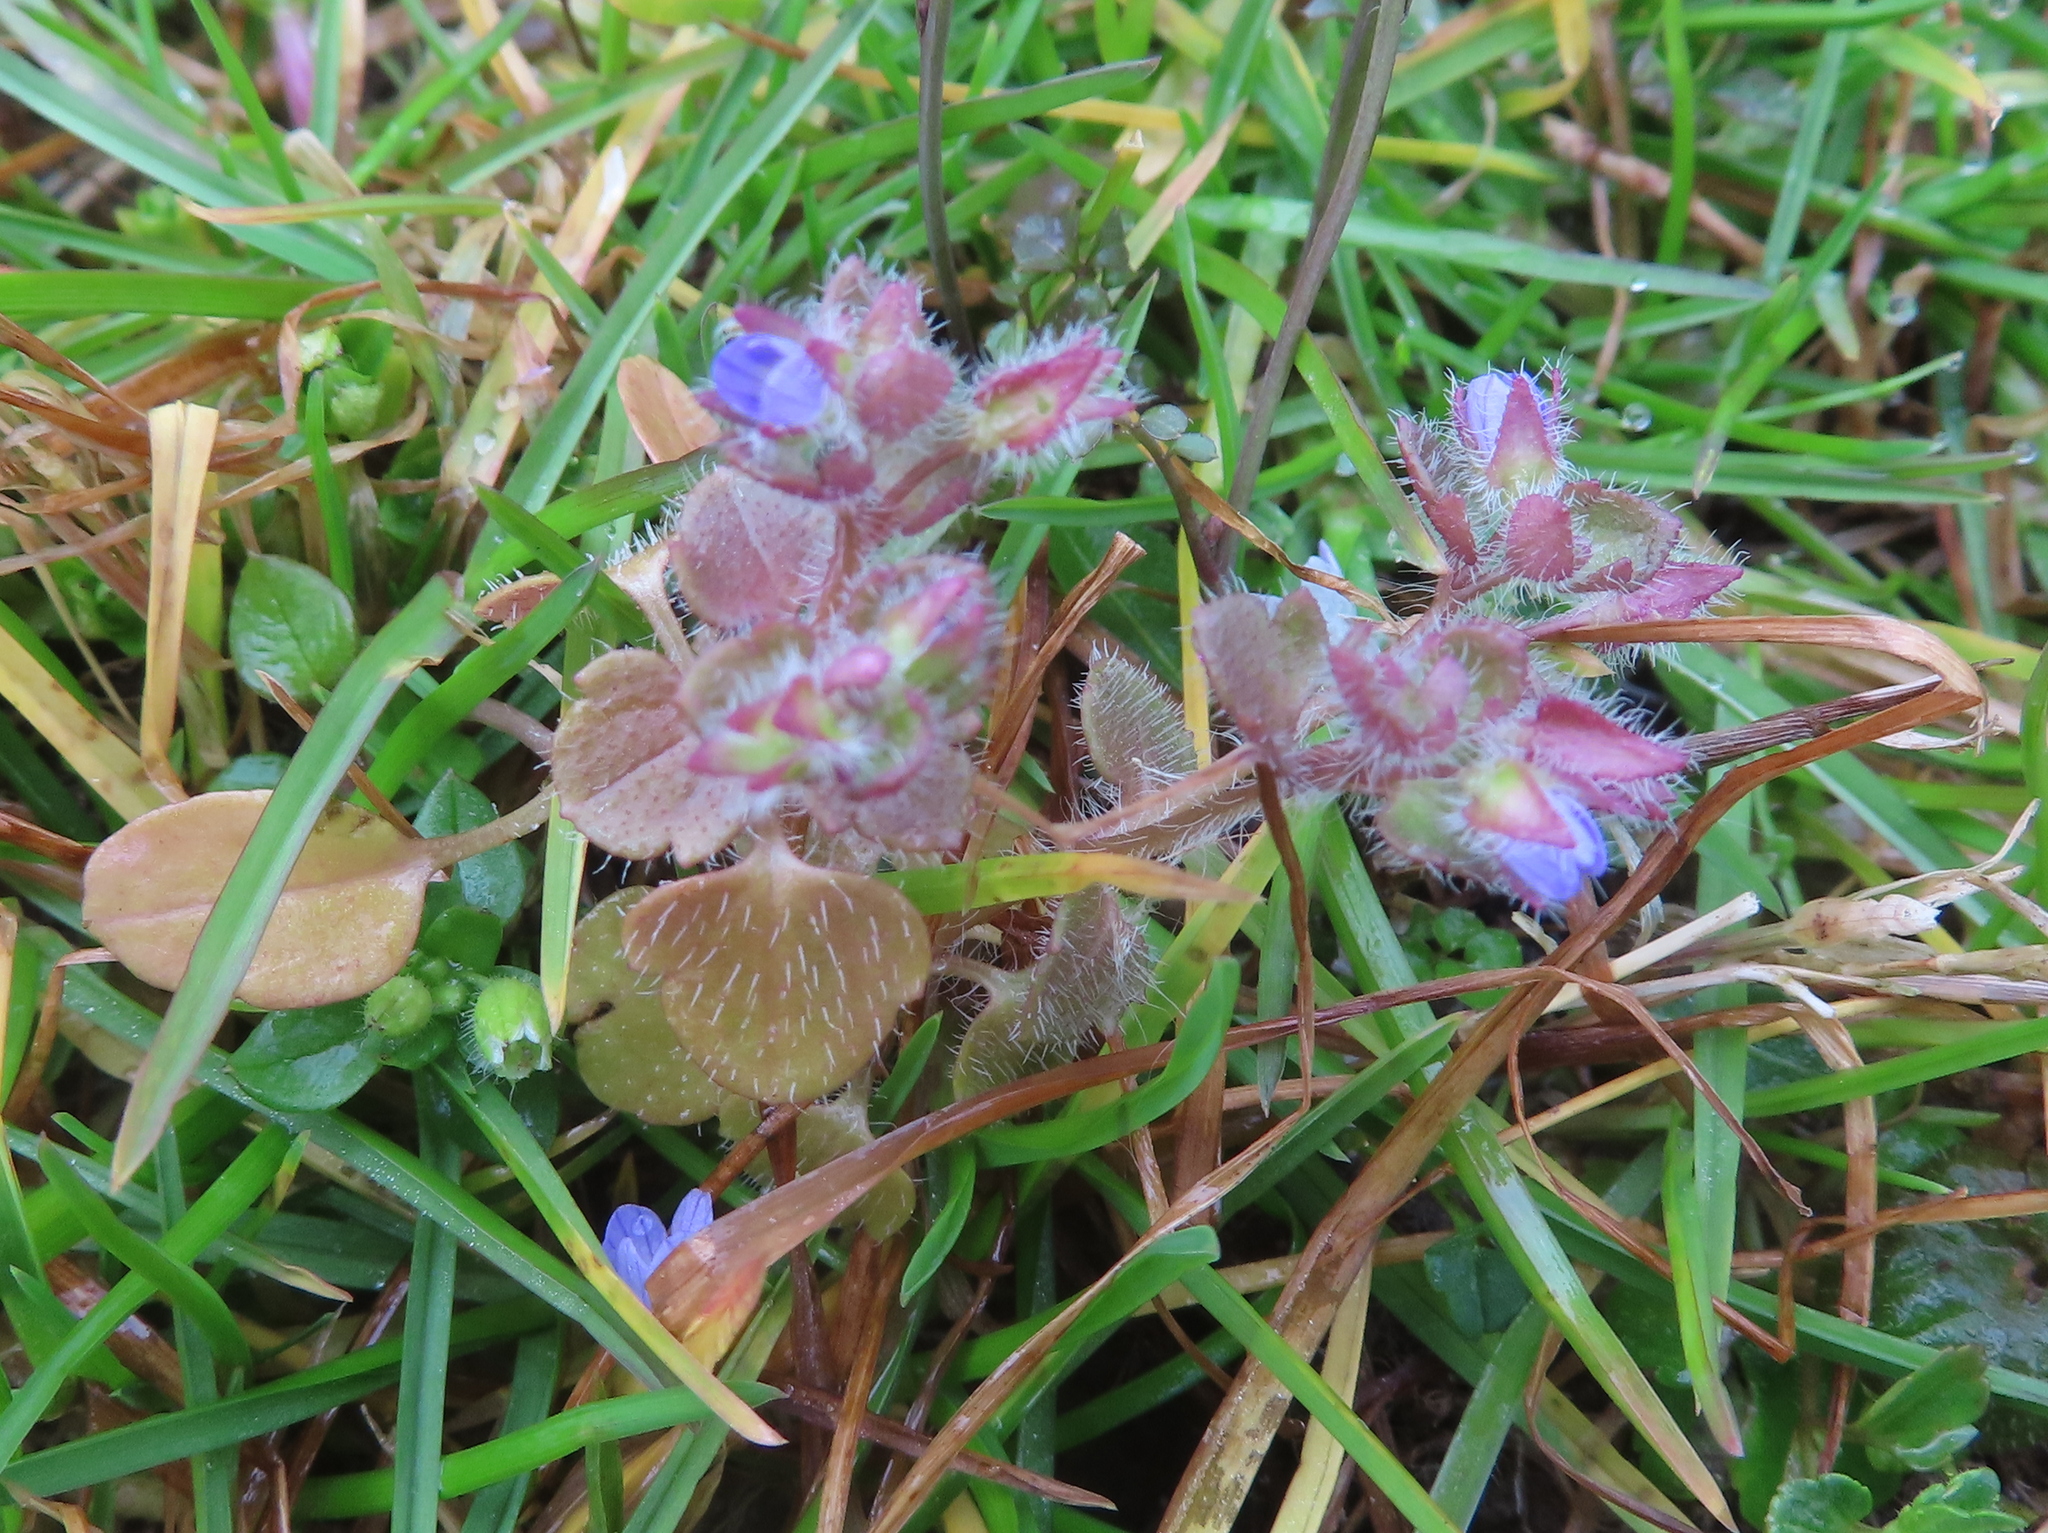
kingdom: Plantae
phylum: Tracheophyta
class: Magnoliopsida
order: Lamiales
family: Plantaginaceae
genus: Veronica
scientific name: Veronica hederifolia
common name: Ivy-leaved speedwell
